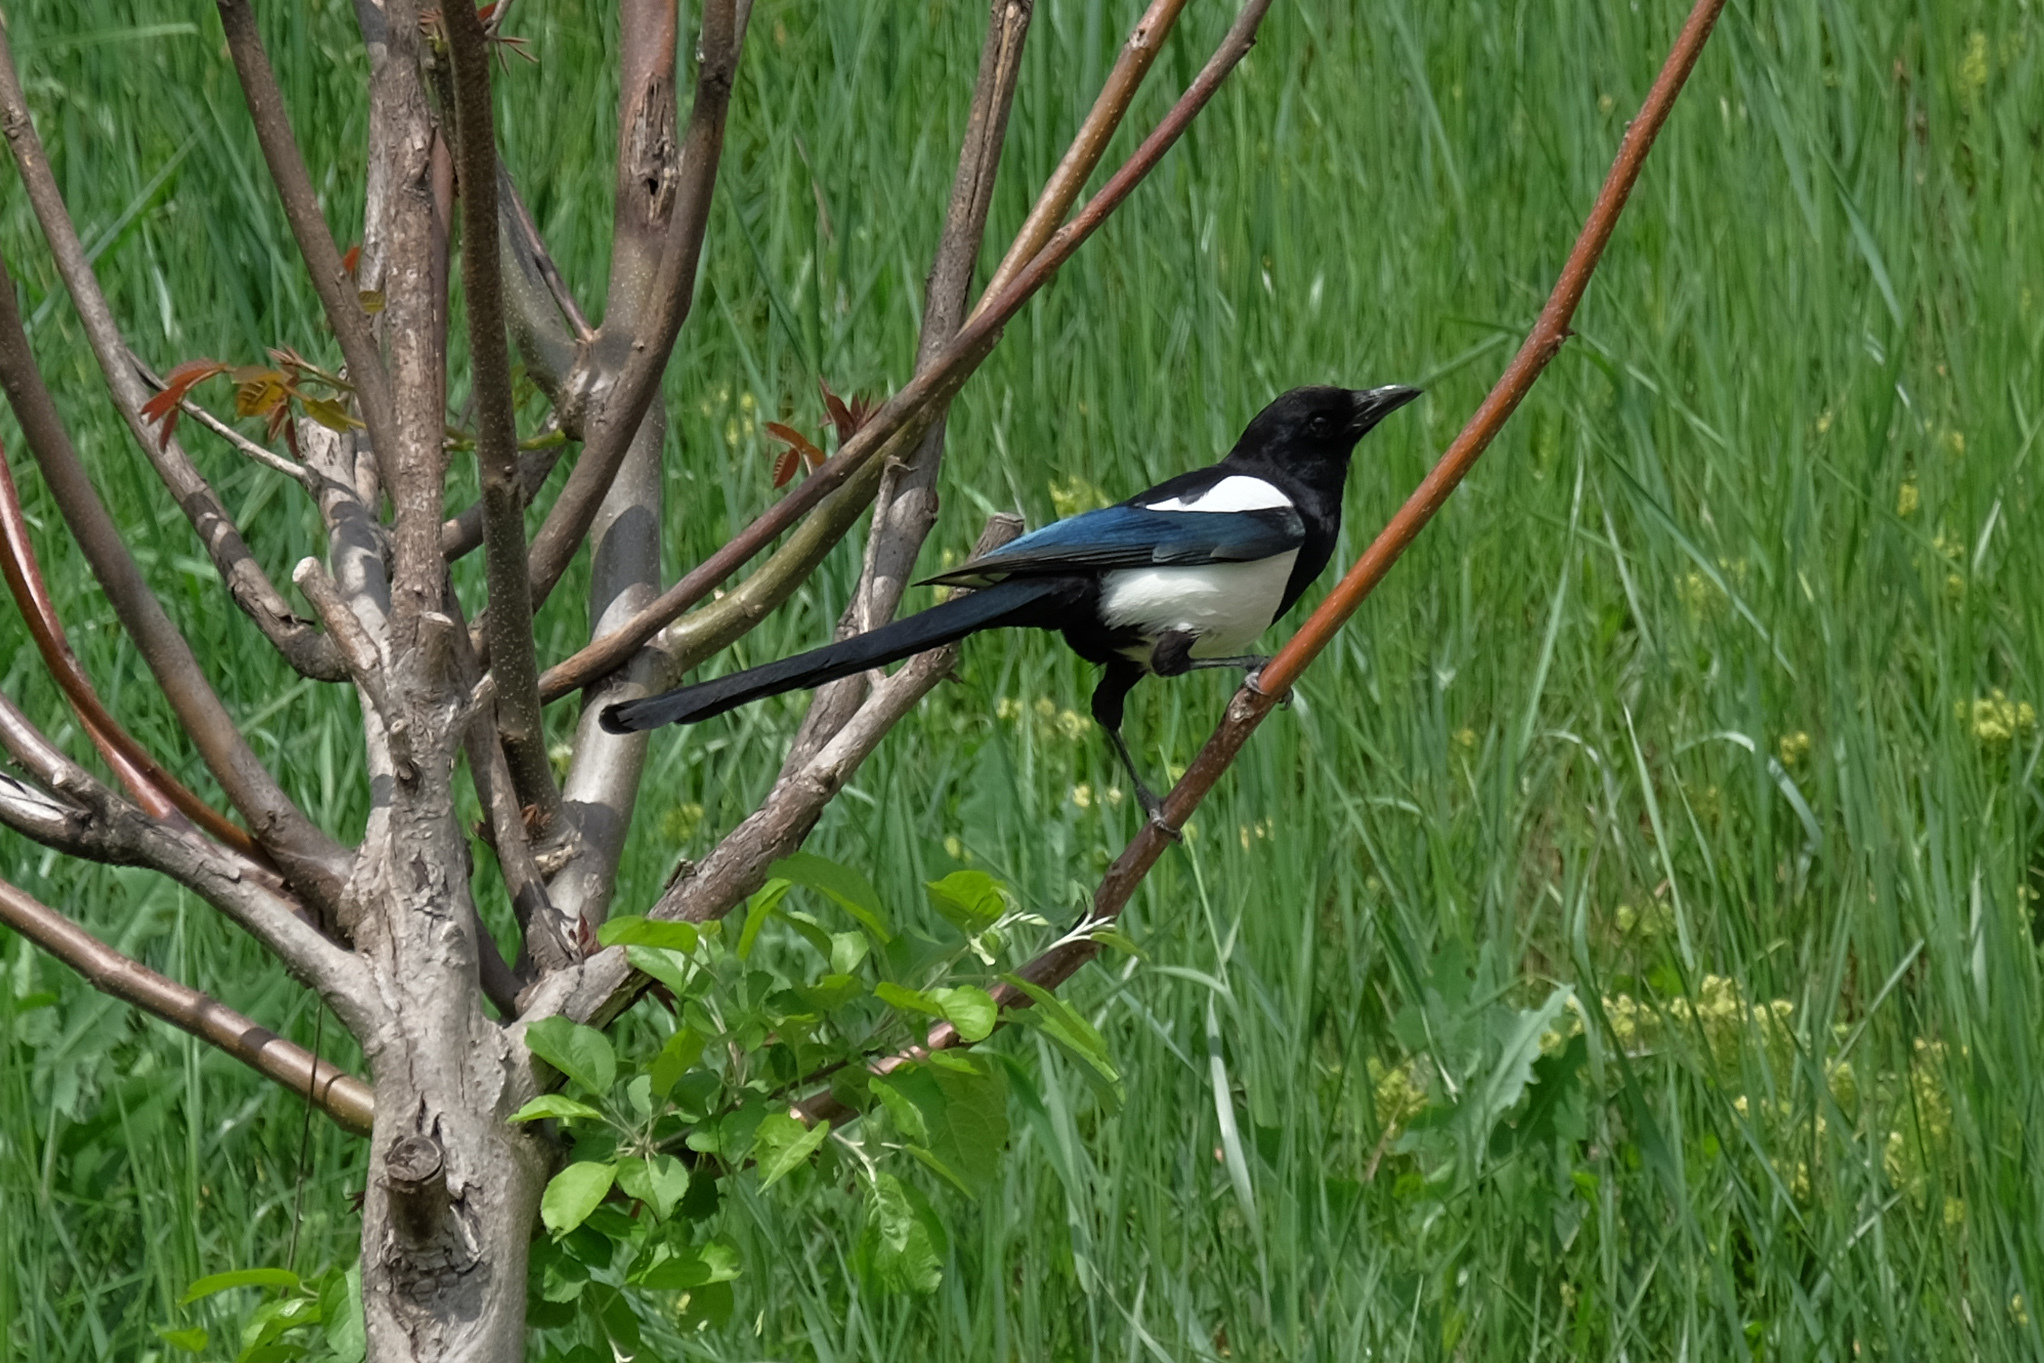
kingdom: Animalia
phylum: Chordata
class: Aves
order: Passeriformes
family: Corvidae
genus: Pica
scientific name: Pica pica
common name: Eurasian magpie
